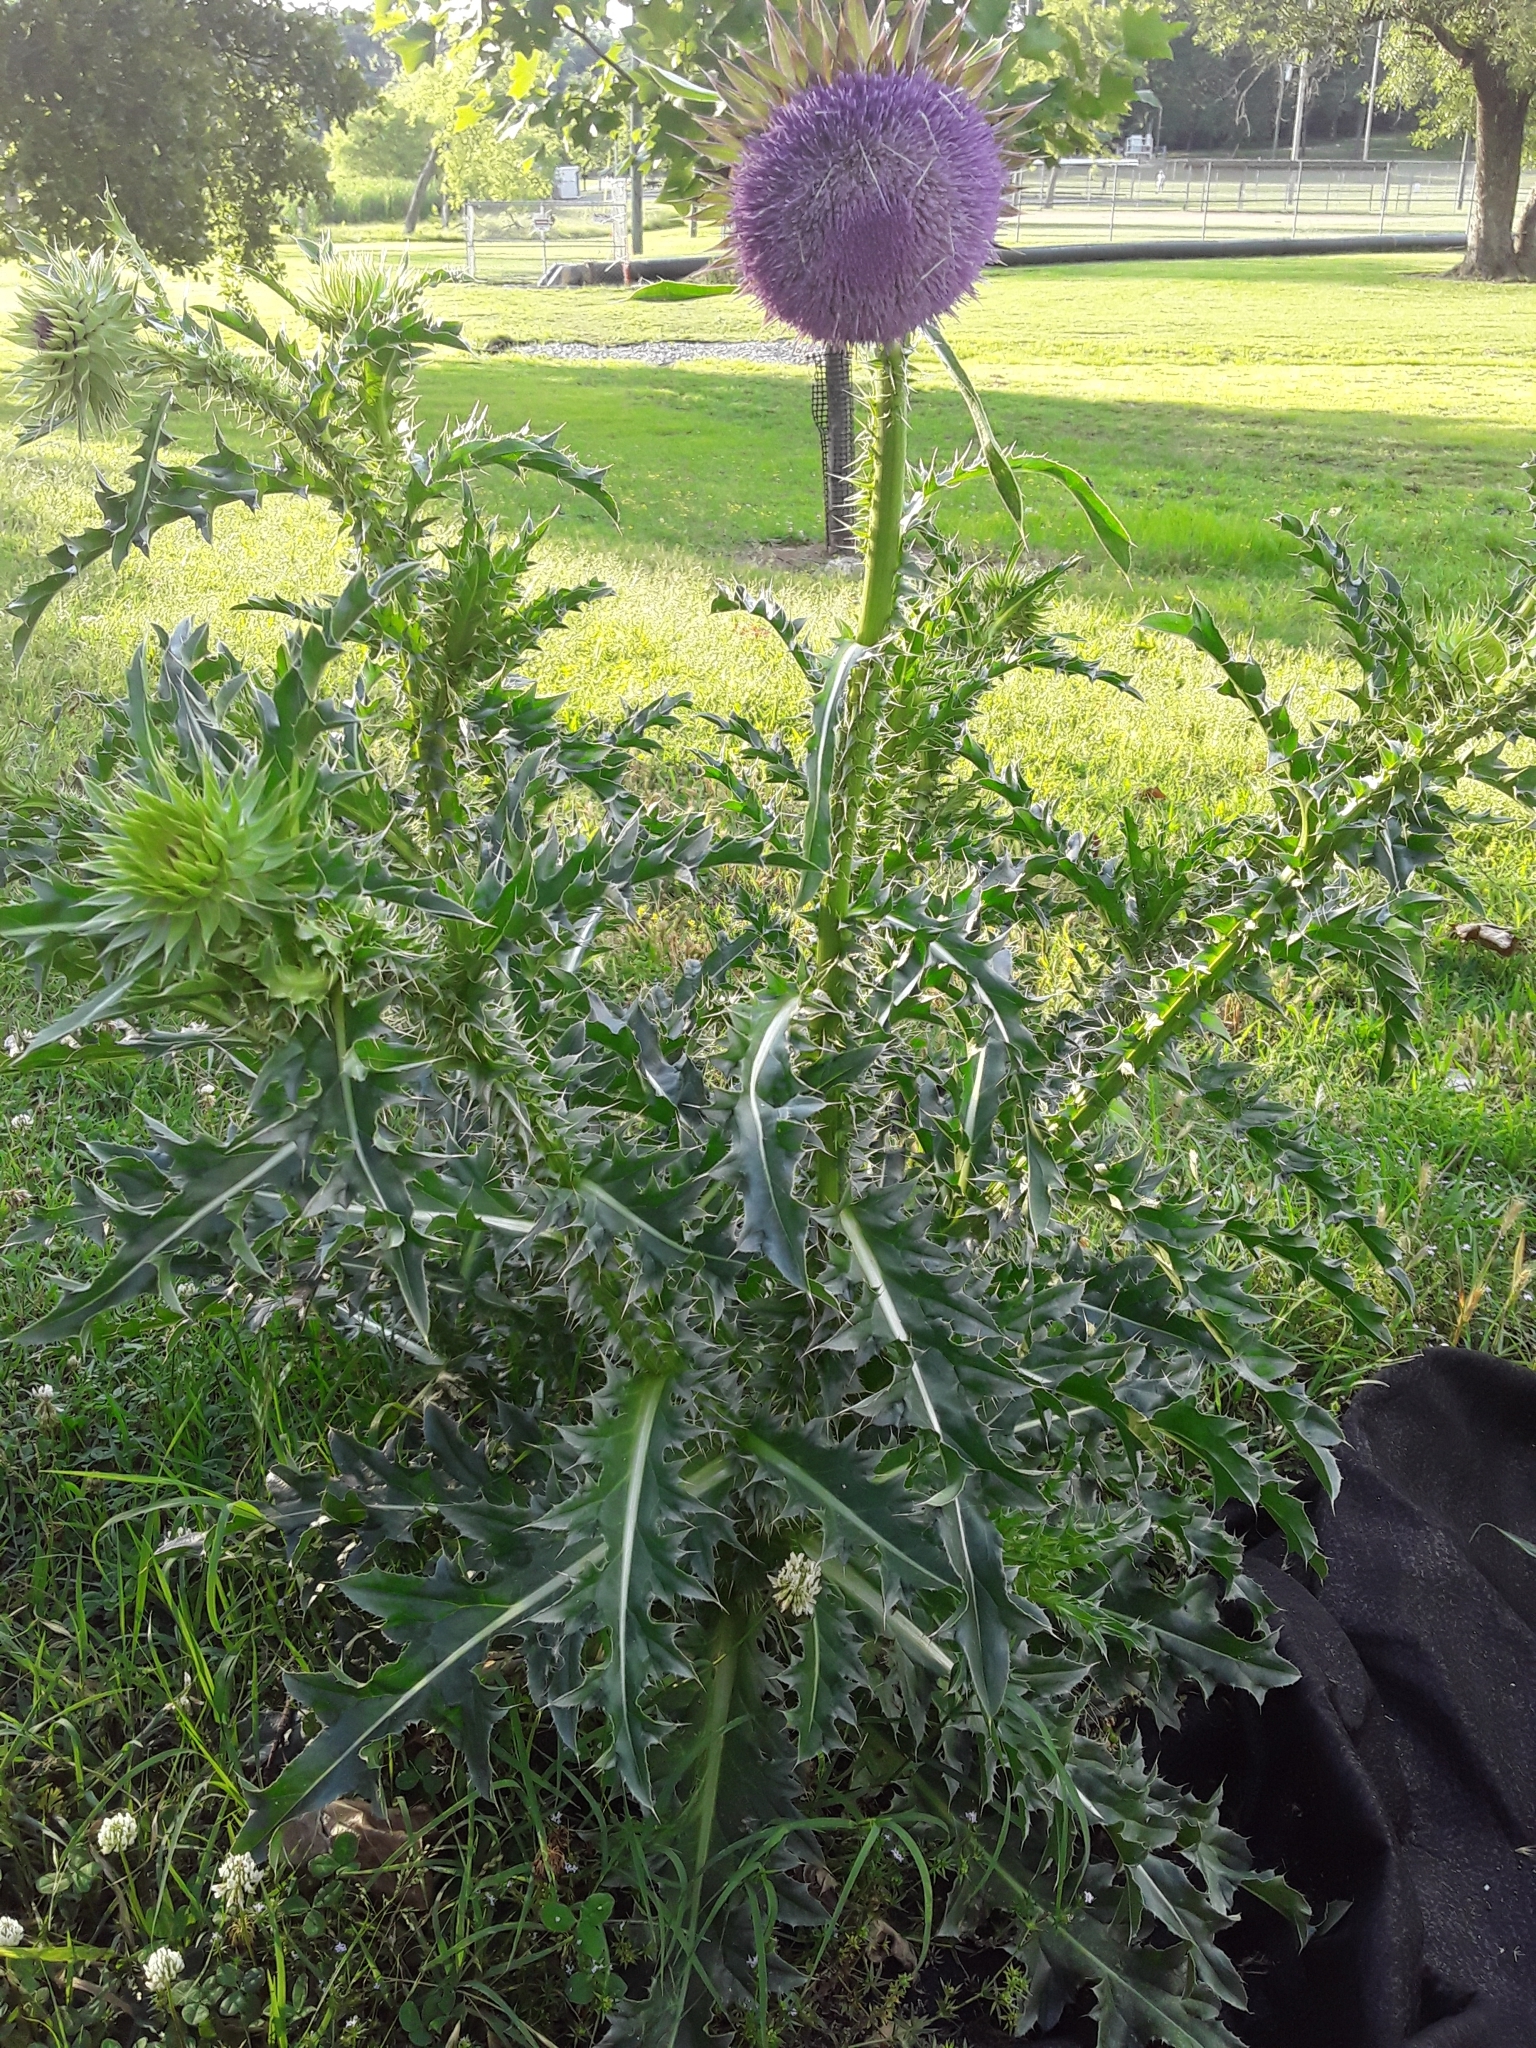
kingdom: Plantae
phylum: Tracheophyta
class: Magnoliopsida
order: Asterales
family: Asteraceae
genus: Carduus
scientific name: Carduus nutans
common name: Musk thistle
